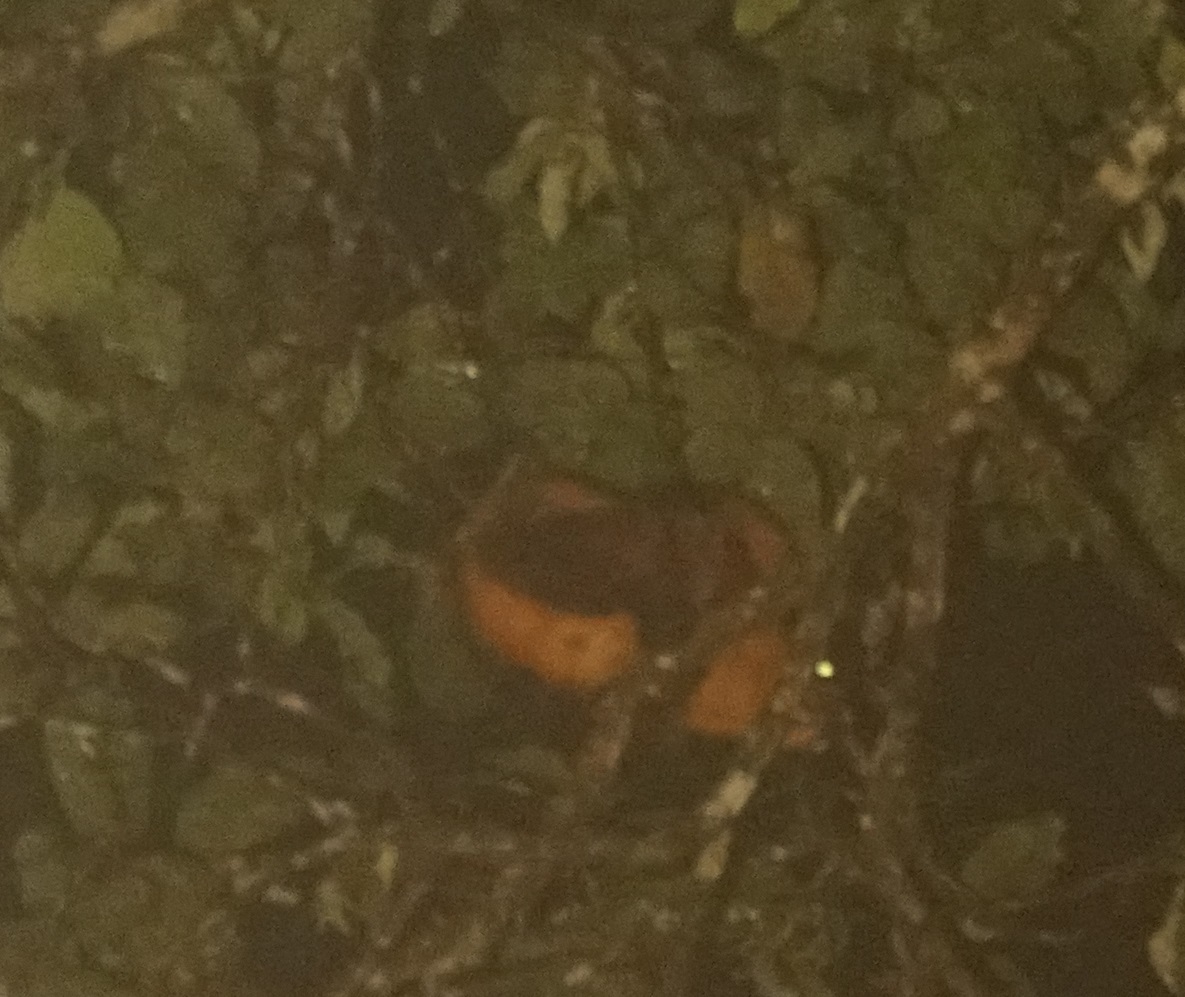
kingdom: Animalia
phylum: Chordata
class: Mammalia
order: Rodentia
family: Sciuridae
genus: Petaurista
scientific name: Petaurista petaurista
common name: Red giant flying squirrel
